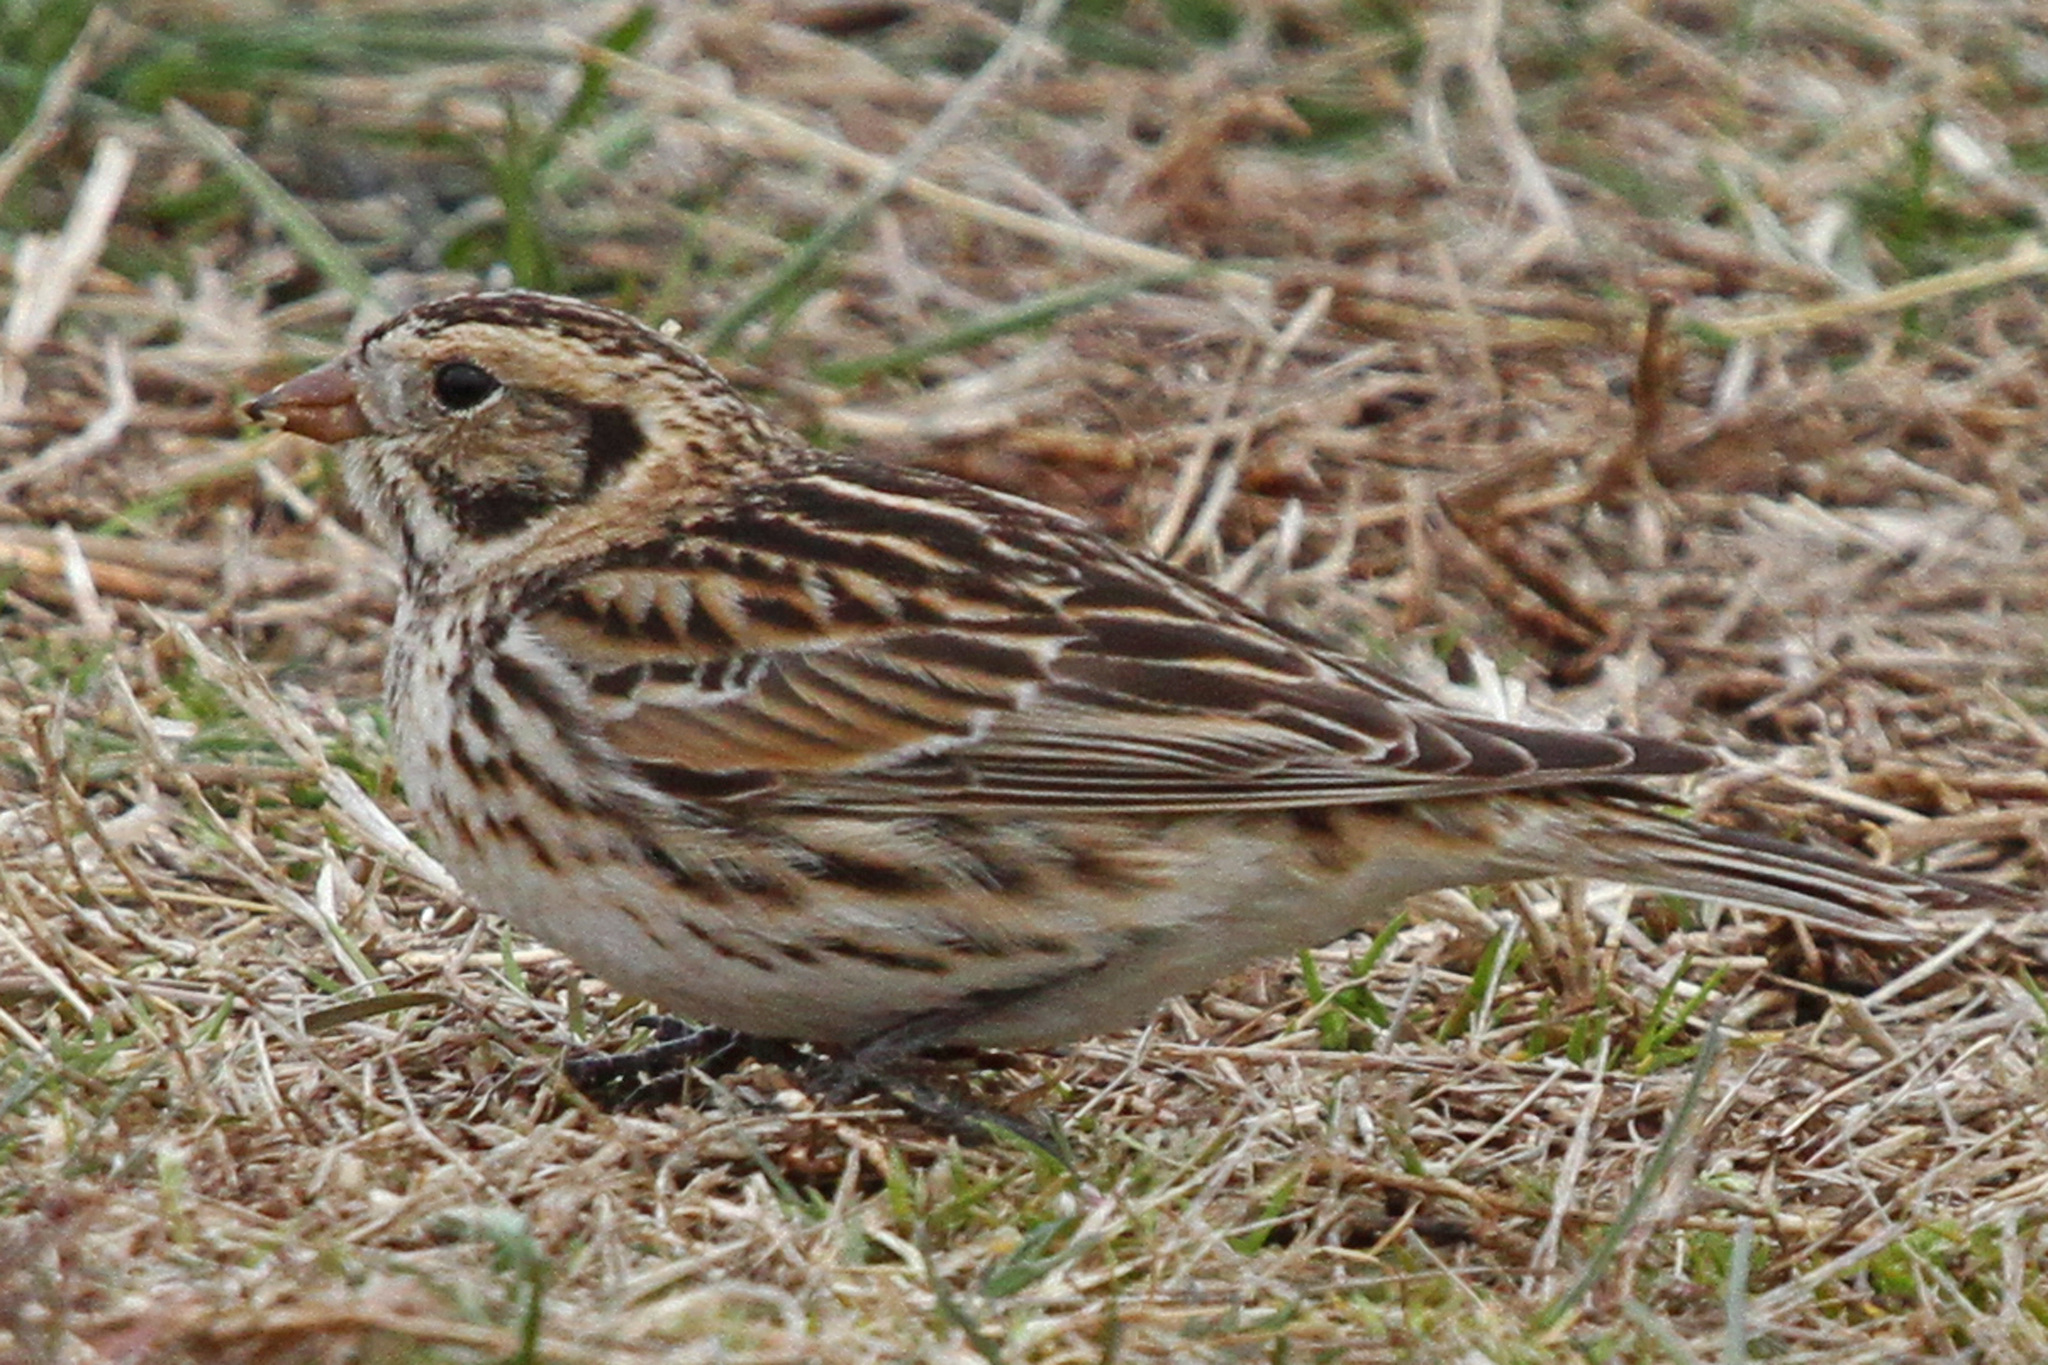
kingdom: Animalia
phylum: Chordata
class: Aves
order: Passeriformes
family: Calcariidae
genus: Calcarius
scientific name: Calcarius lapponicus
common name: Lapland longspur
